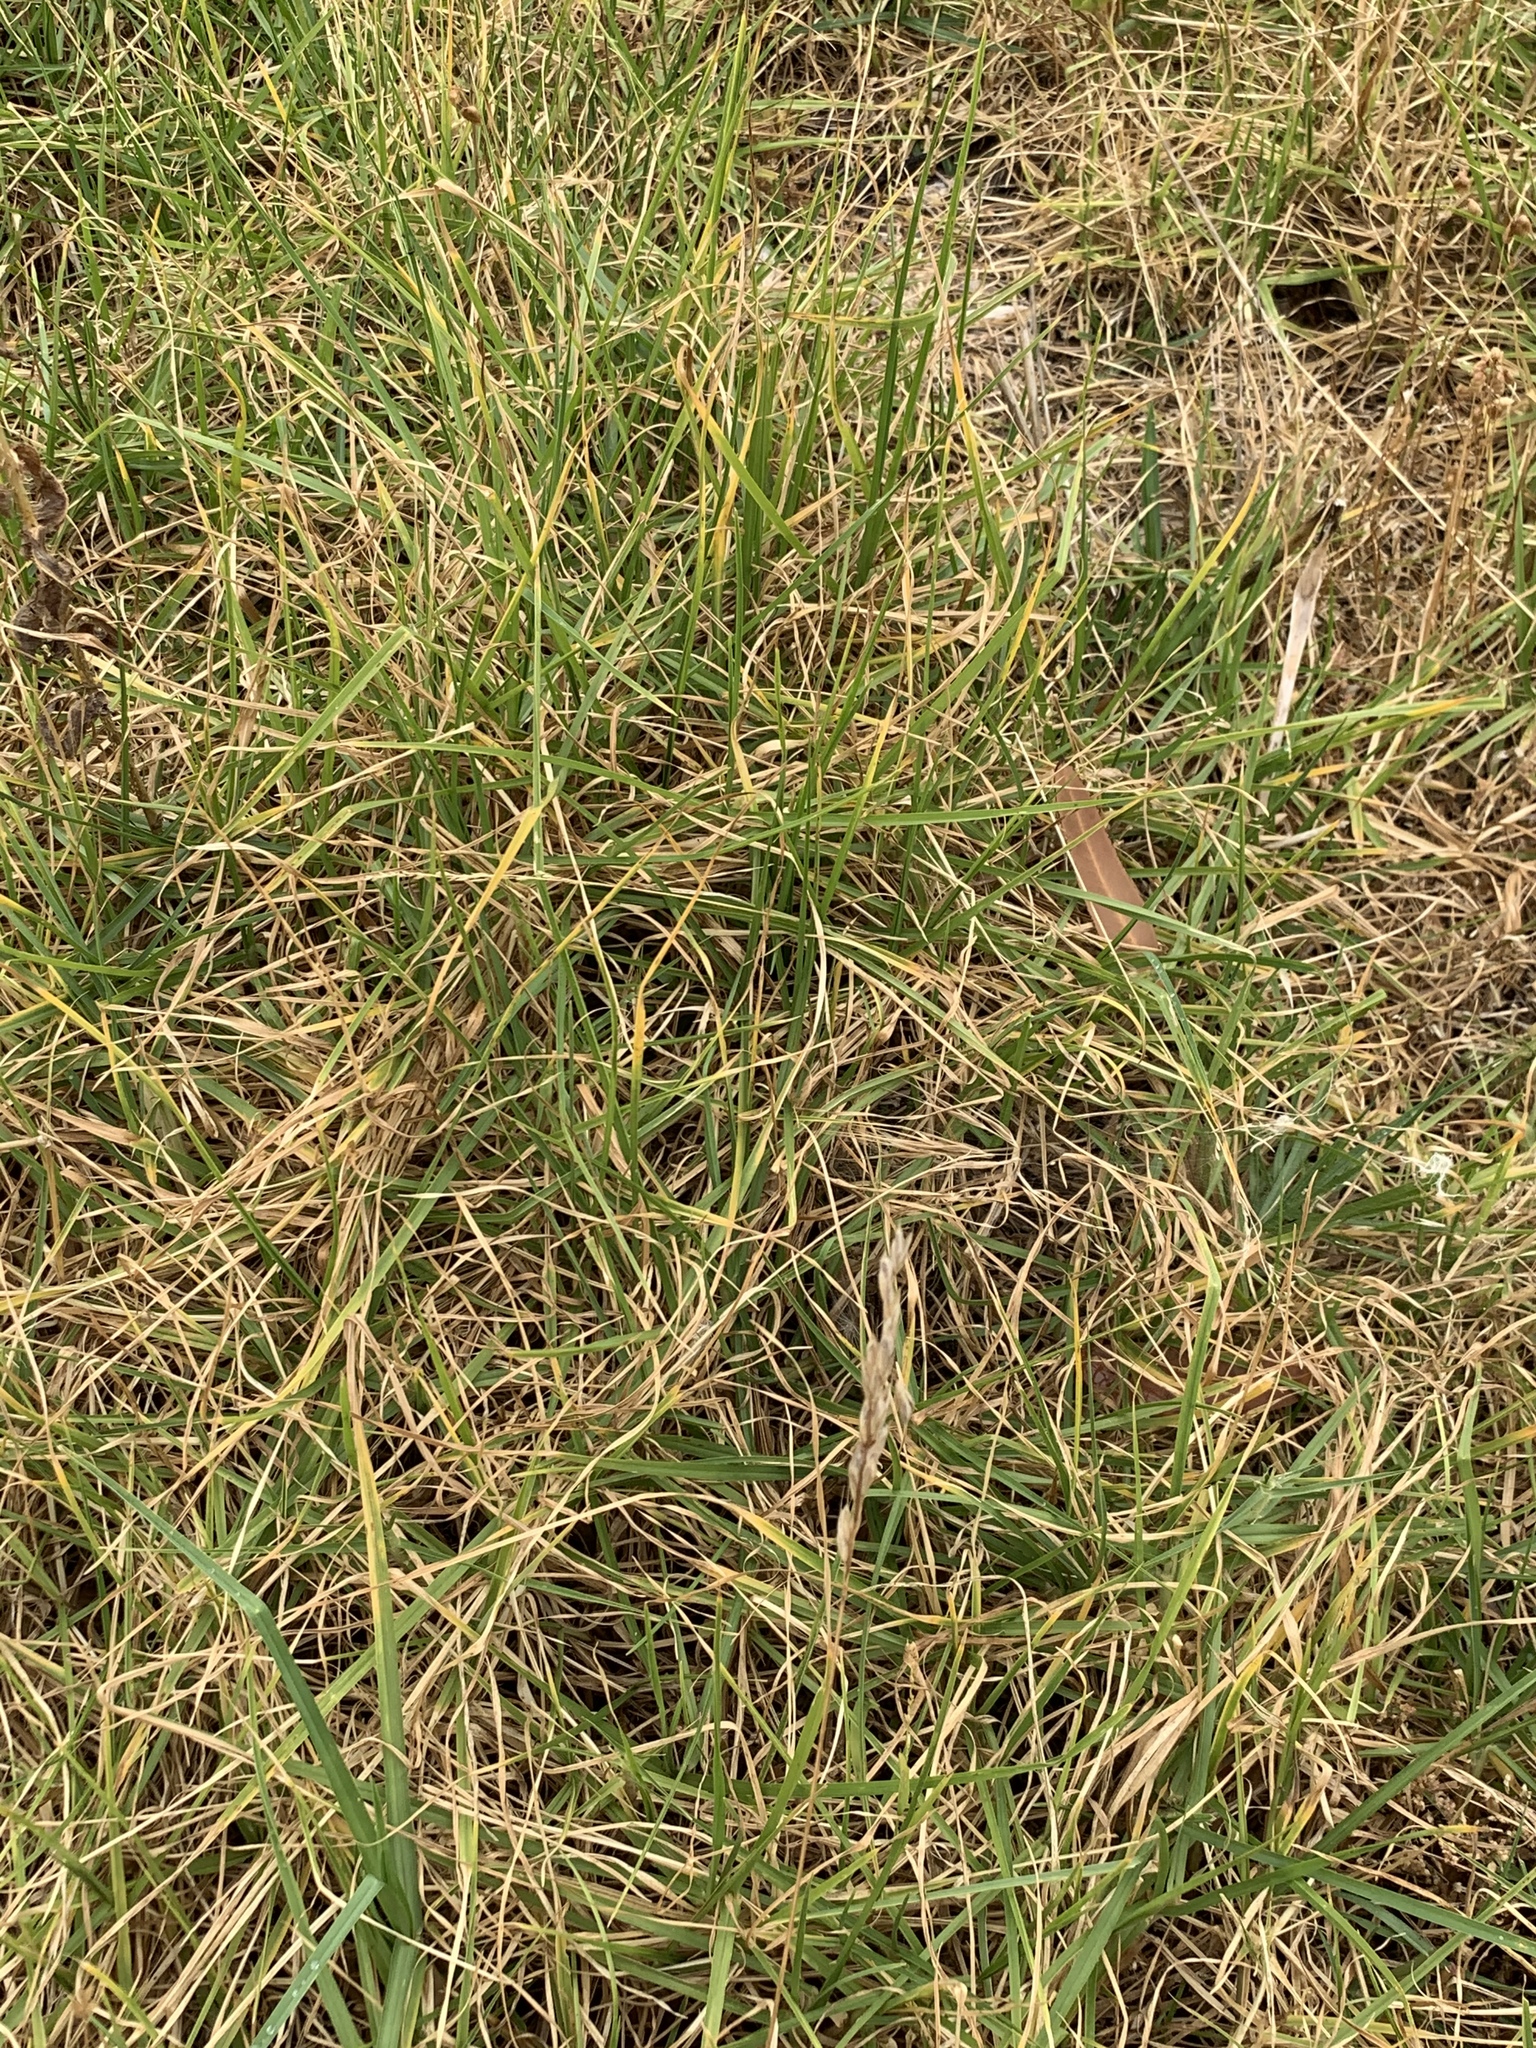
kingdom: Plantae
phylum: Tracheophyta
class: Liliopsida
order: Poales
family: Poaceae
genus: Cenchrus
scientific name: Cenchrus clandestinus
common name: Kikuyugrass
